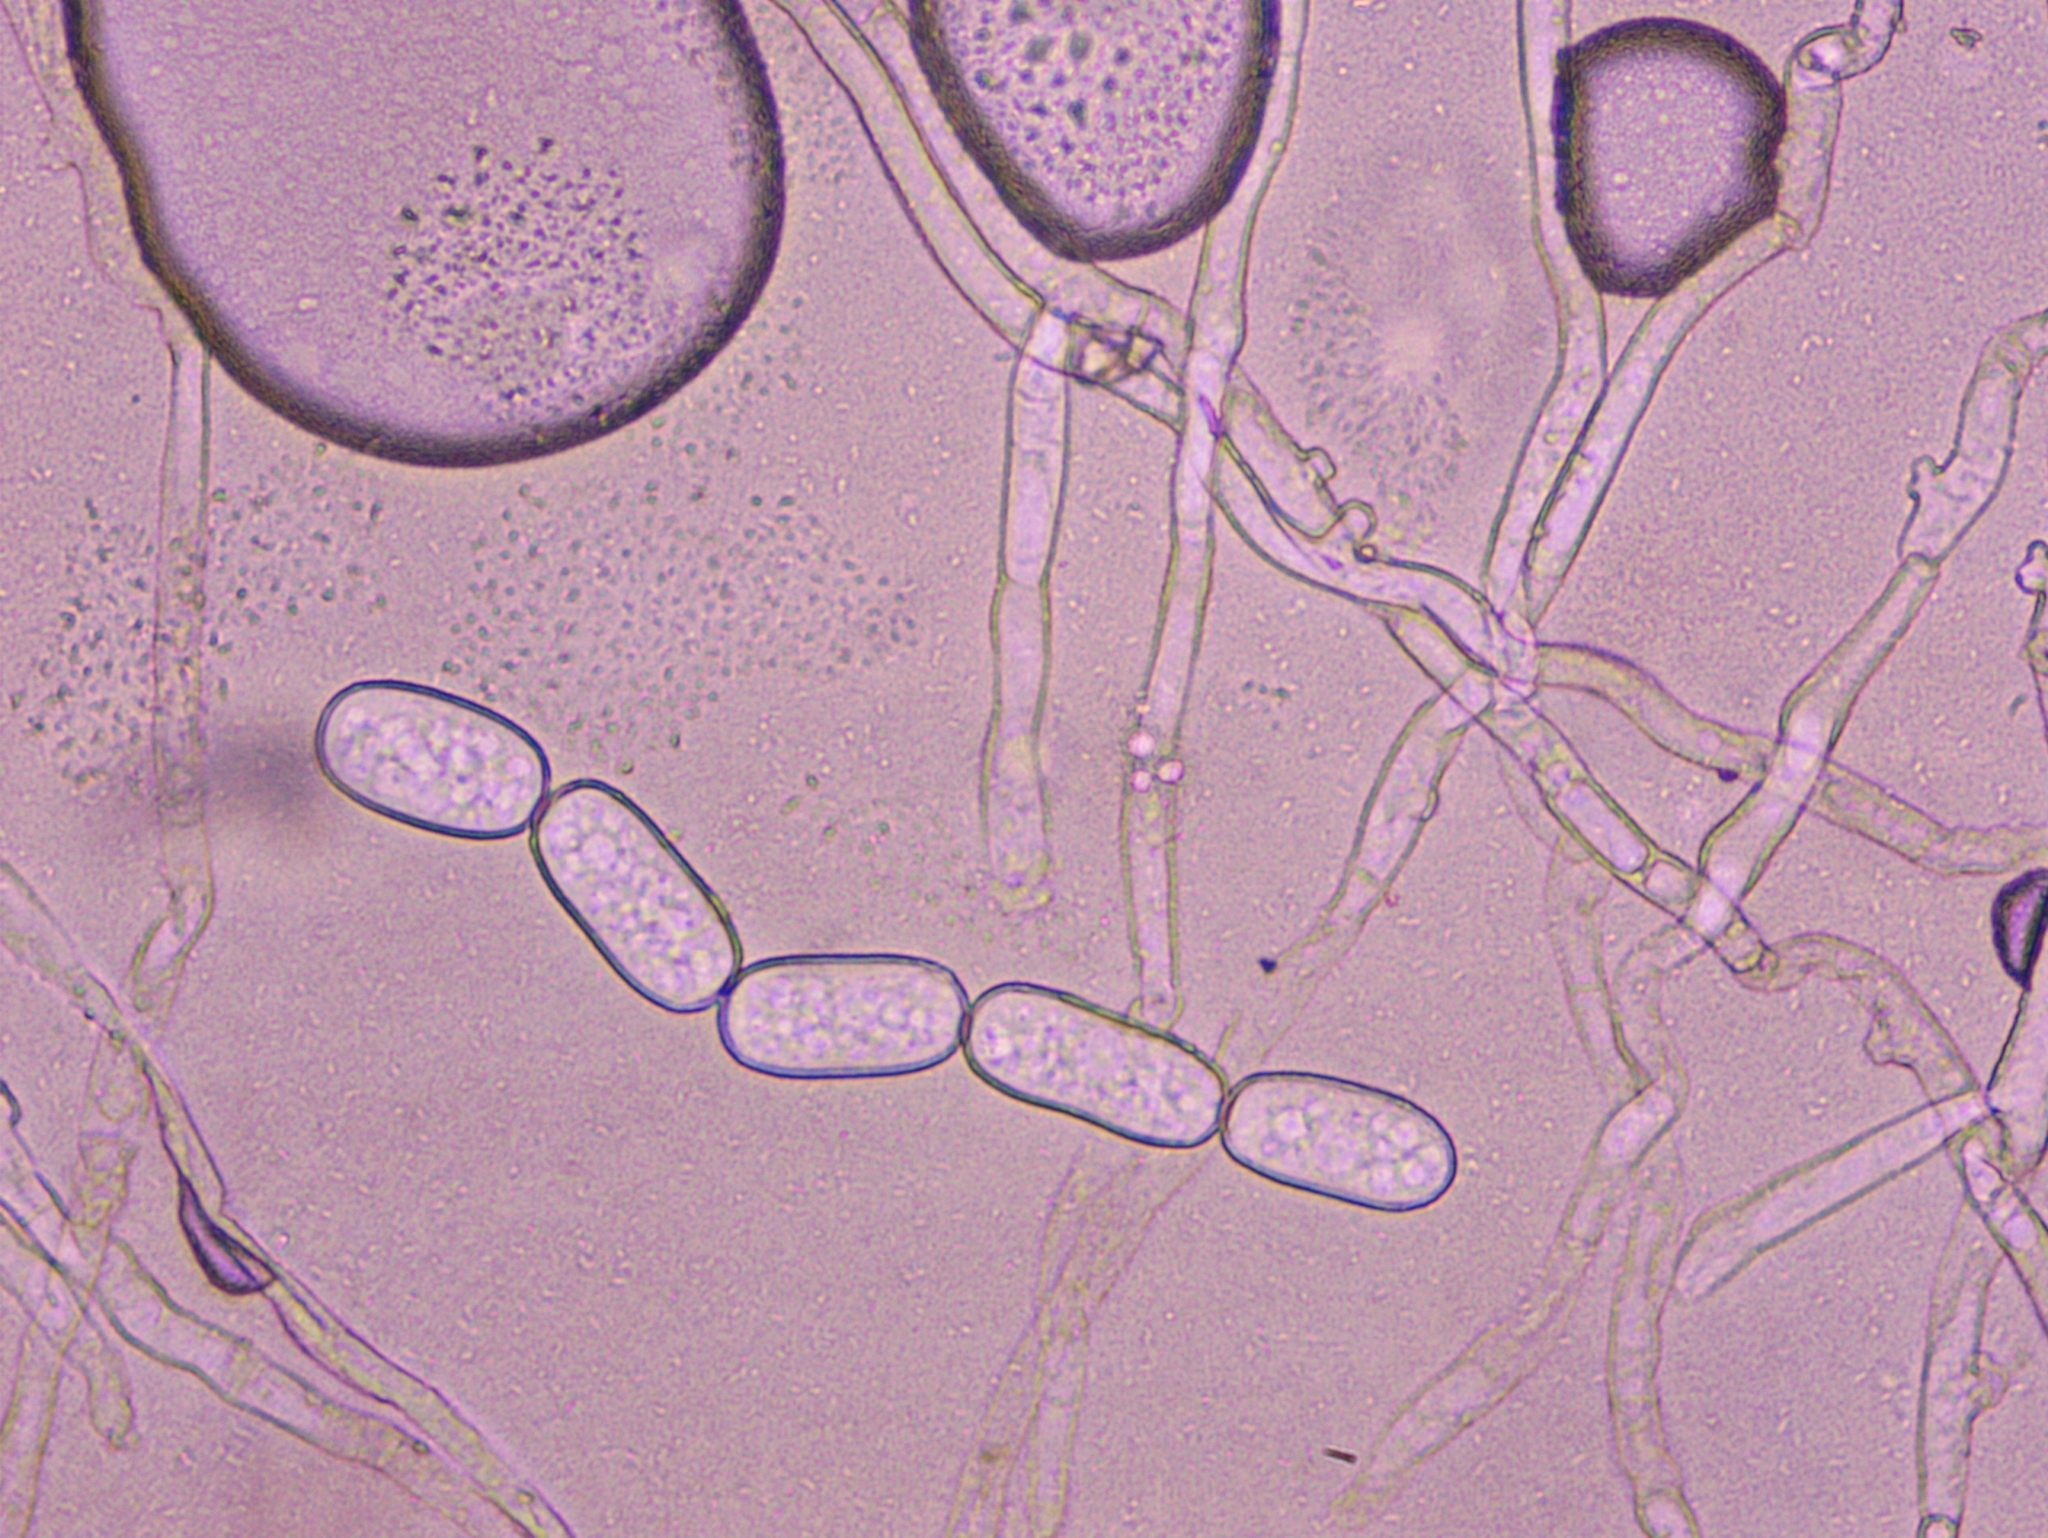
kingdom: Fungi
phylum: Ascomycota
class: Leotiomycetes
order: Helotiales
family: Erysiphaceae
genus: Golovinomyces
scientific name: Golovinomyces sonchicola
